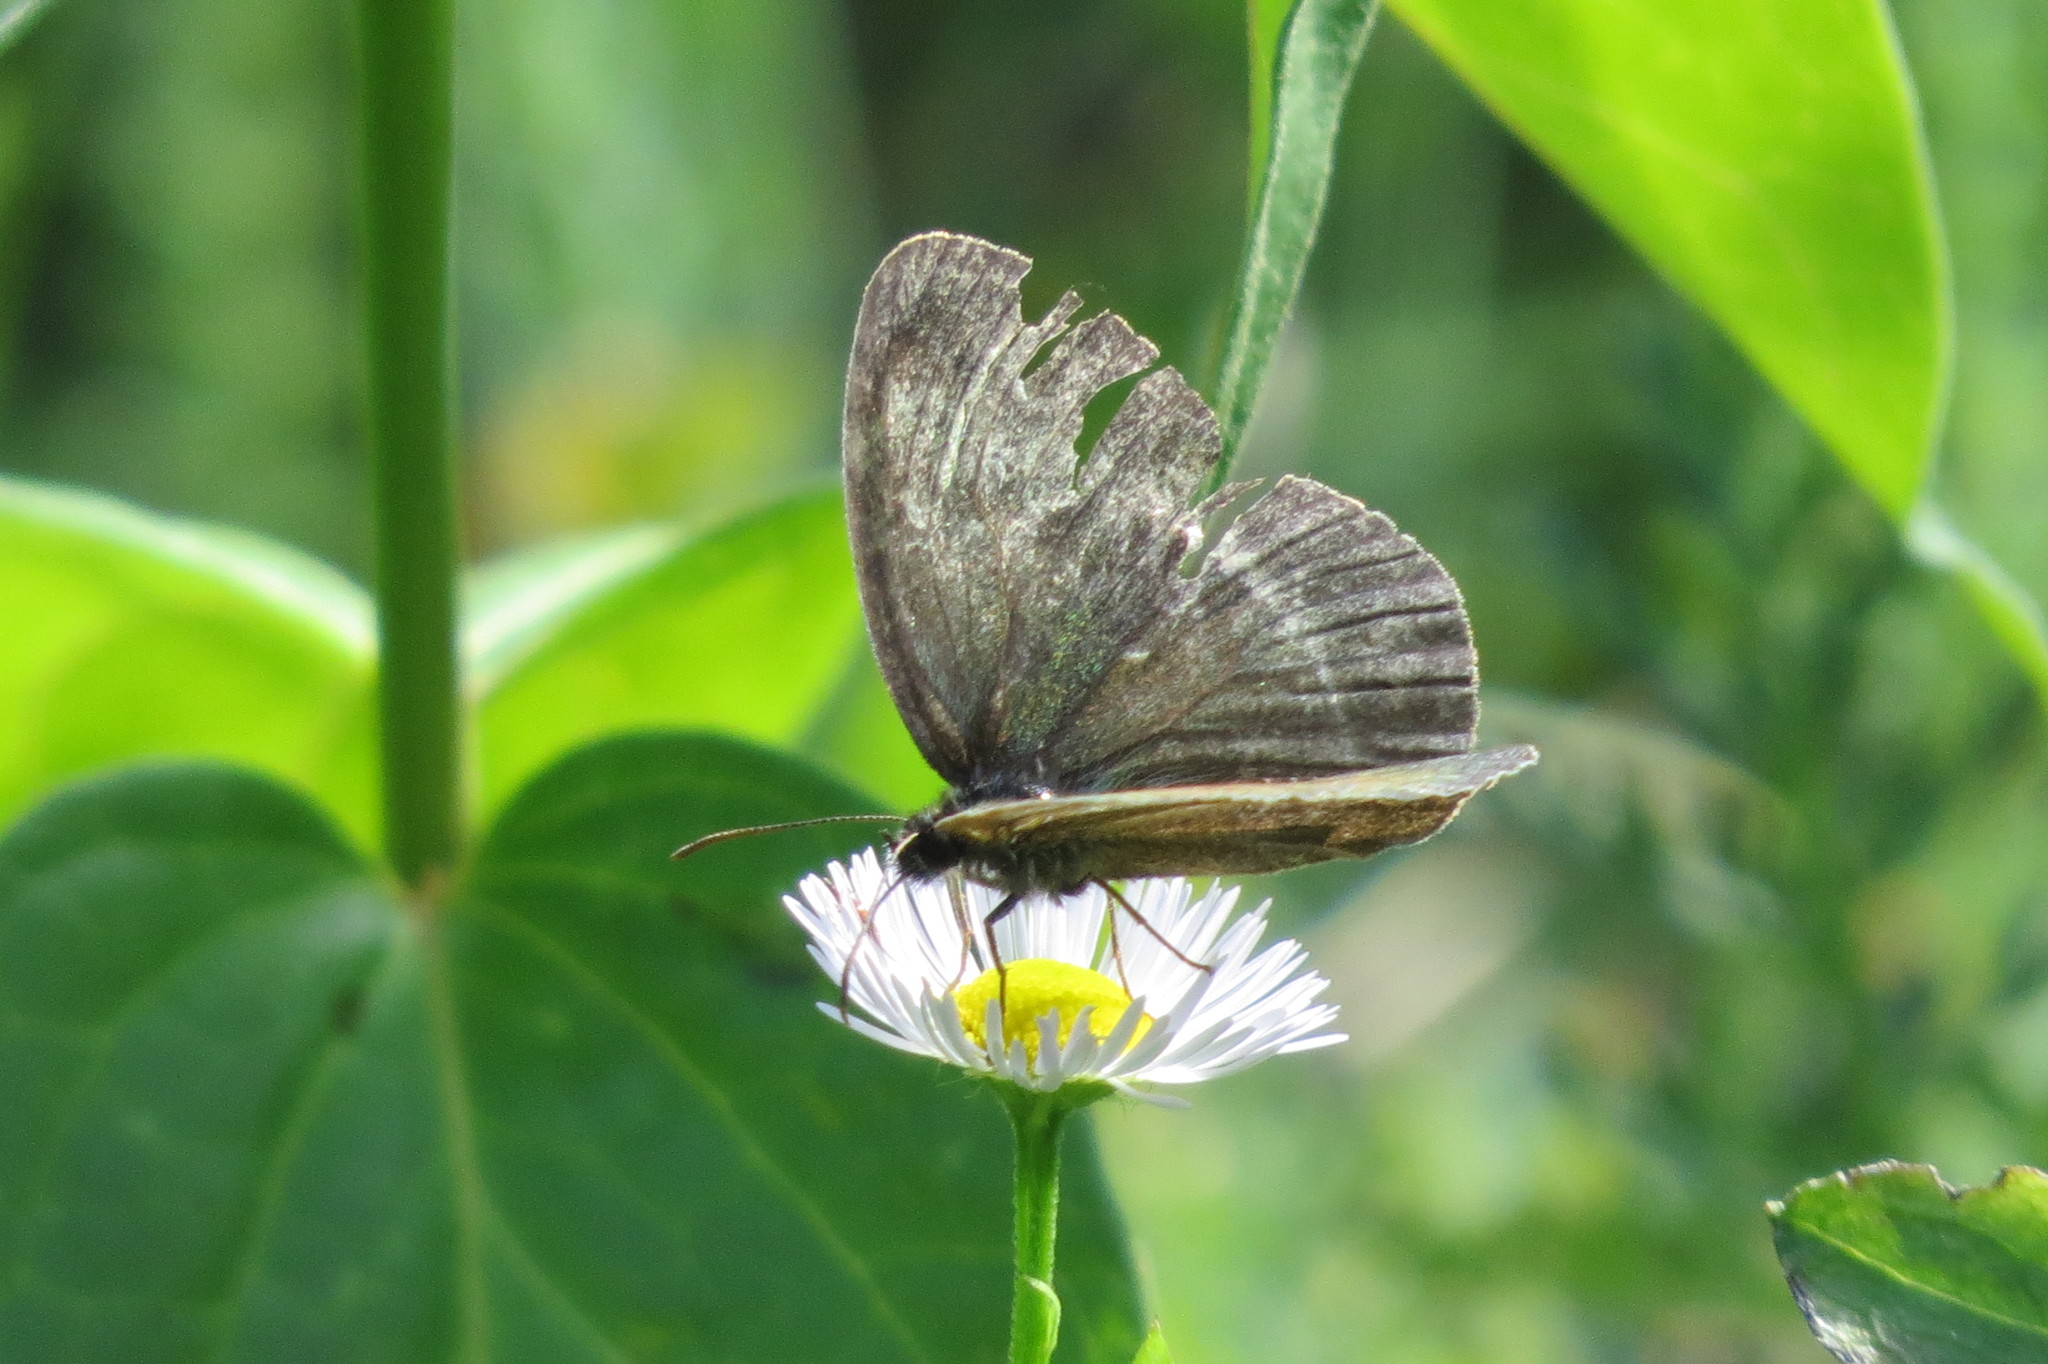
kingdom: Animalia
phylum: Arthropoda
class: Insecta
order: Lepidoptera
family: Nymphalidae
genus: Aphantopus
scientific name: Aphantopus hyperantus
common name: Ringlet
